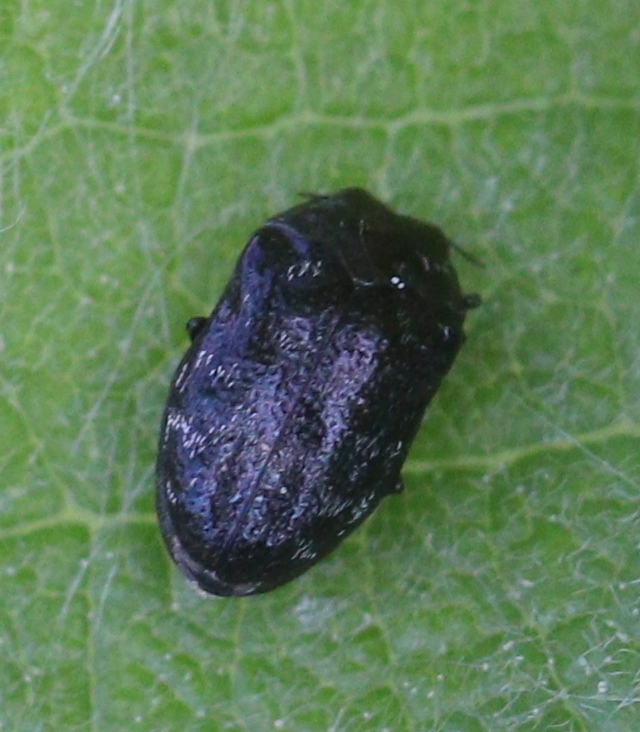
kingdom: Animalia
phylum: Arthropoda
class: Insecta
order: Coleoptera
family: Buprestidae
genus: Trachys
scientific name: Trachys minutus
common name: Metallic wood-boring beetle
